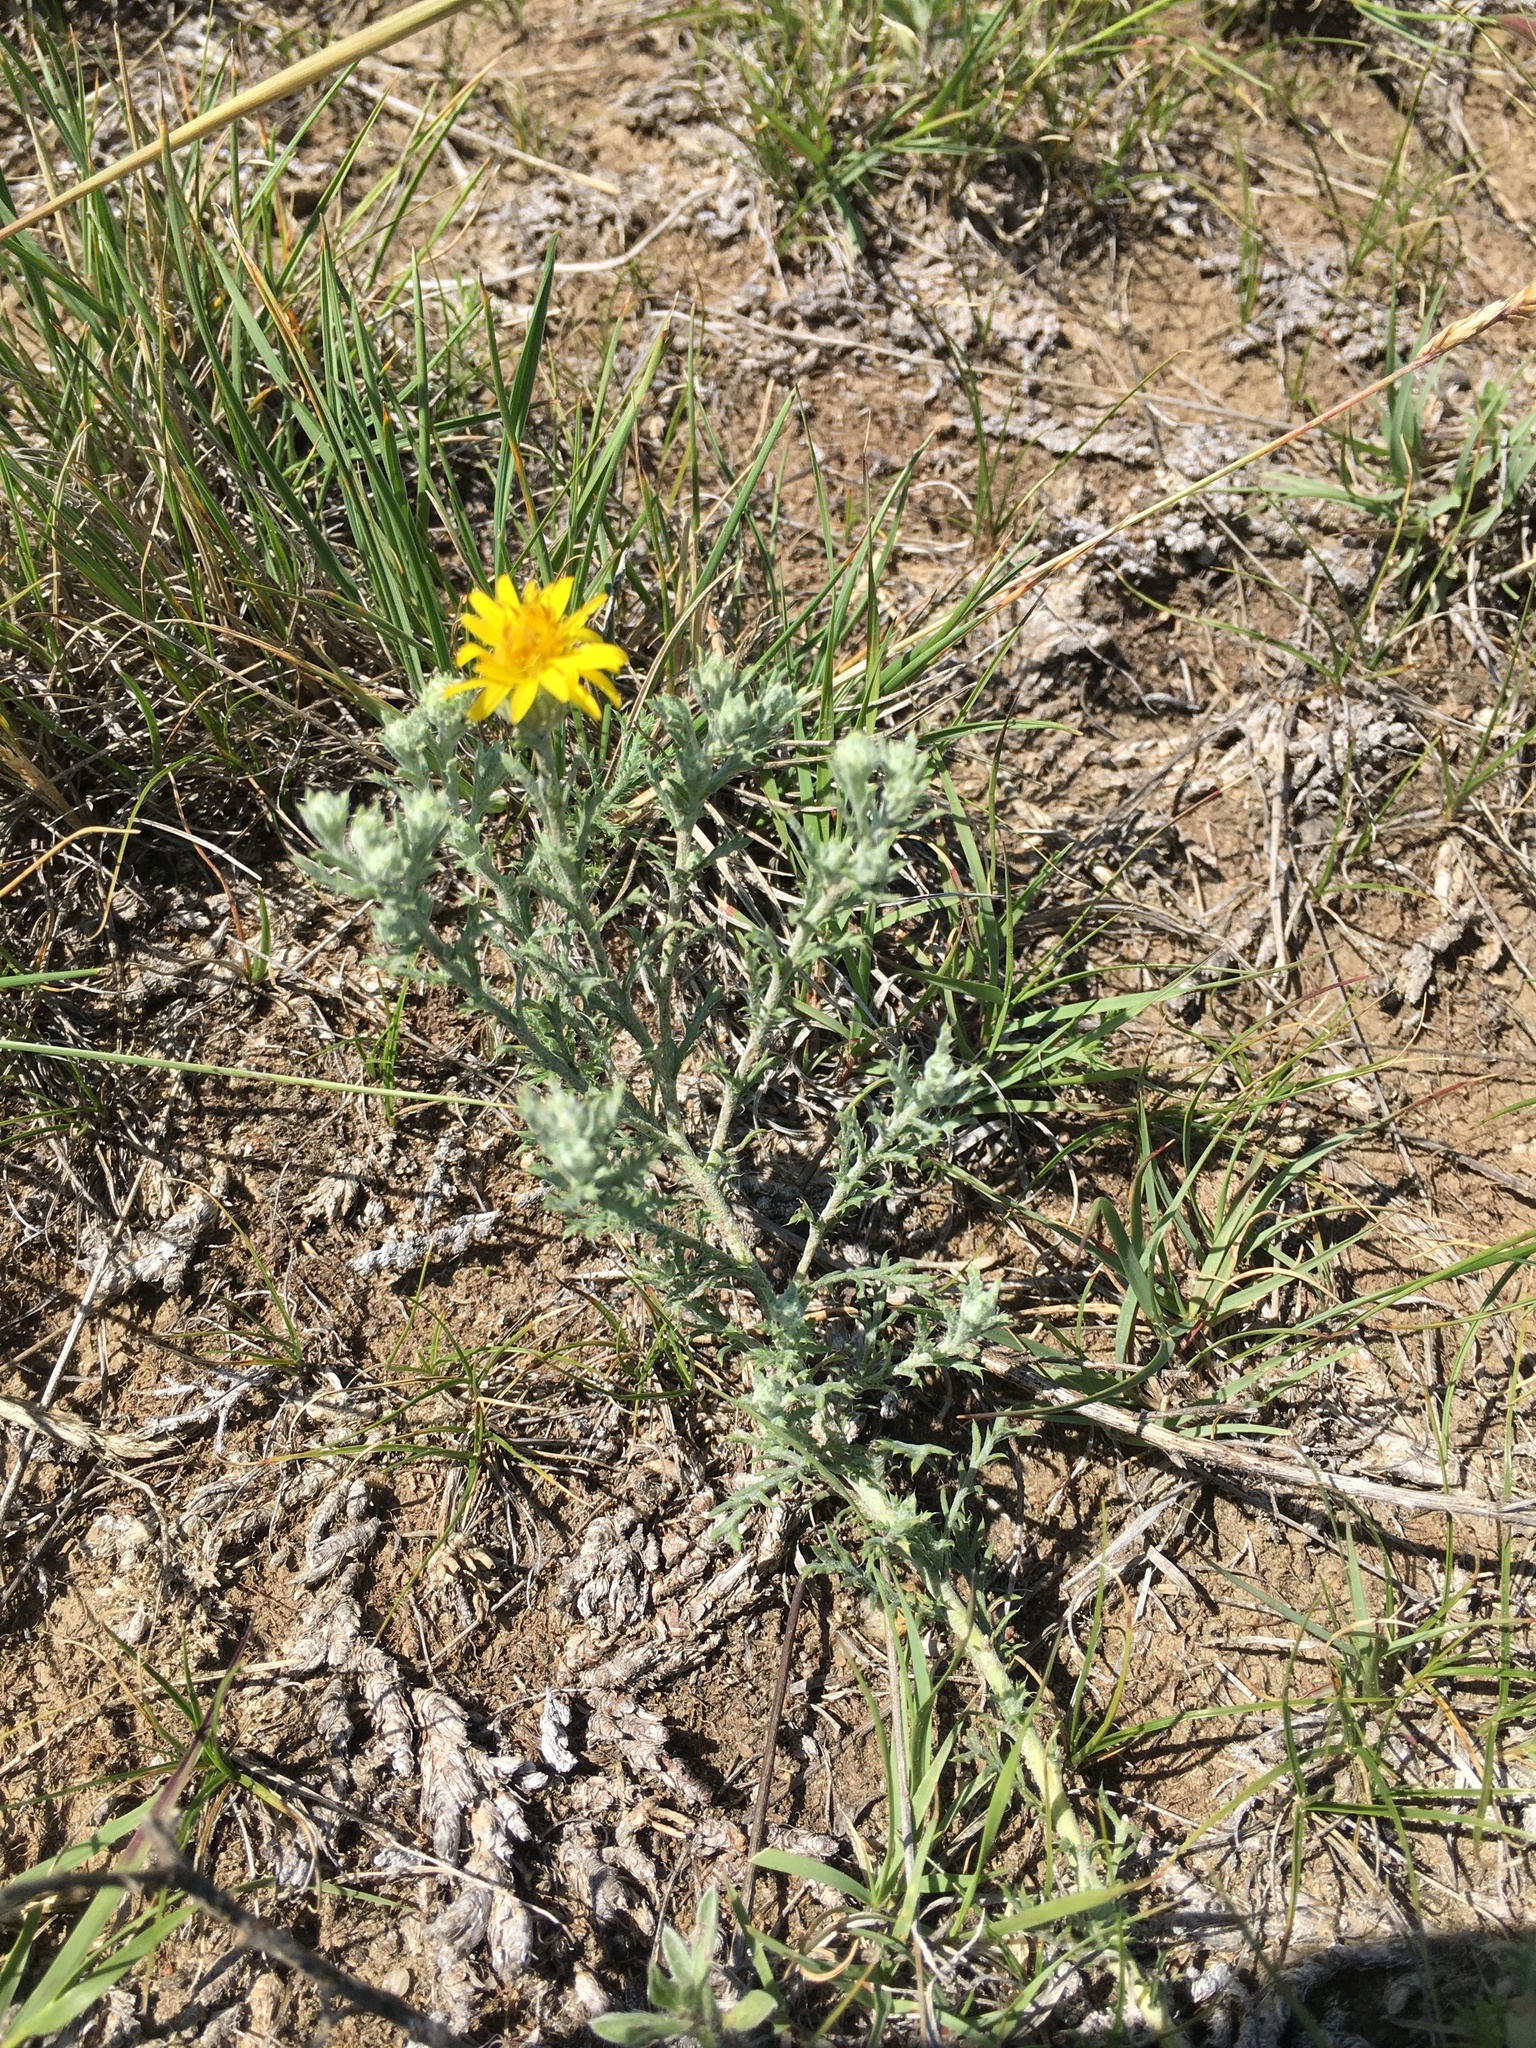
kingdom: Plantae
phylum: Tracheophyta
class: Magnoliopsida
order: Asterales
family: Asteraceae
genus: Xanthisma
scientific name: Xanthisma spinulosum
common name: Spiny goldenweed
